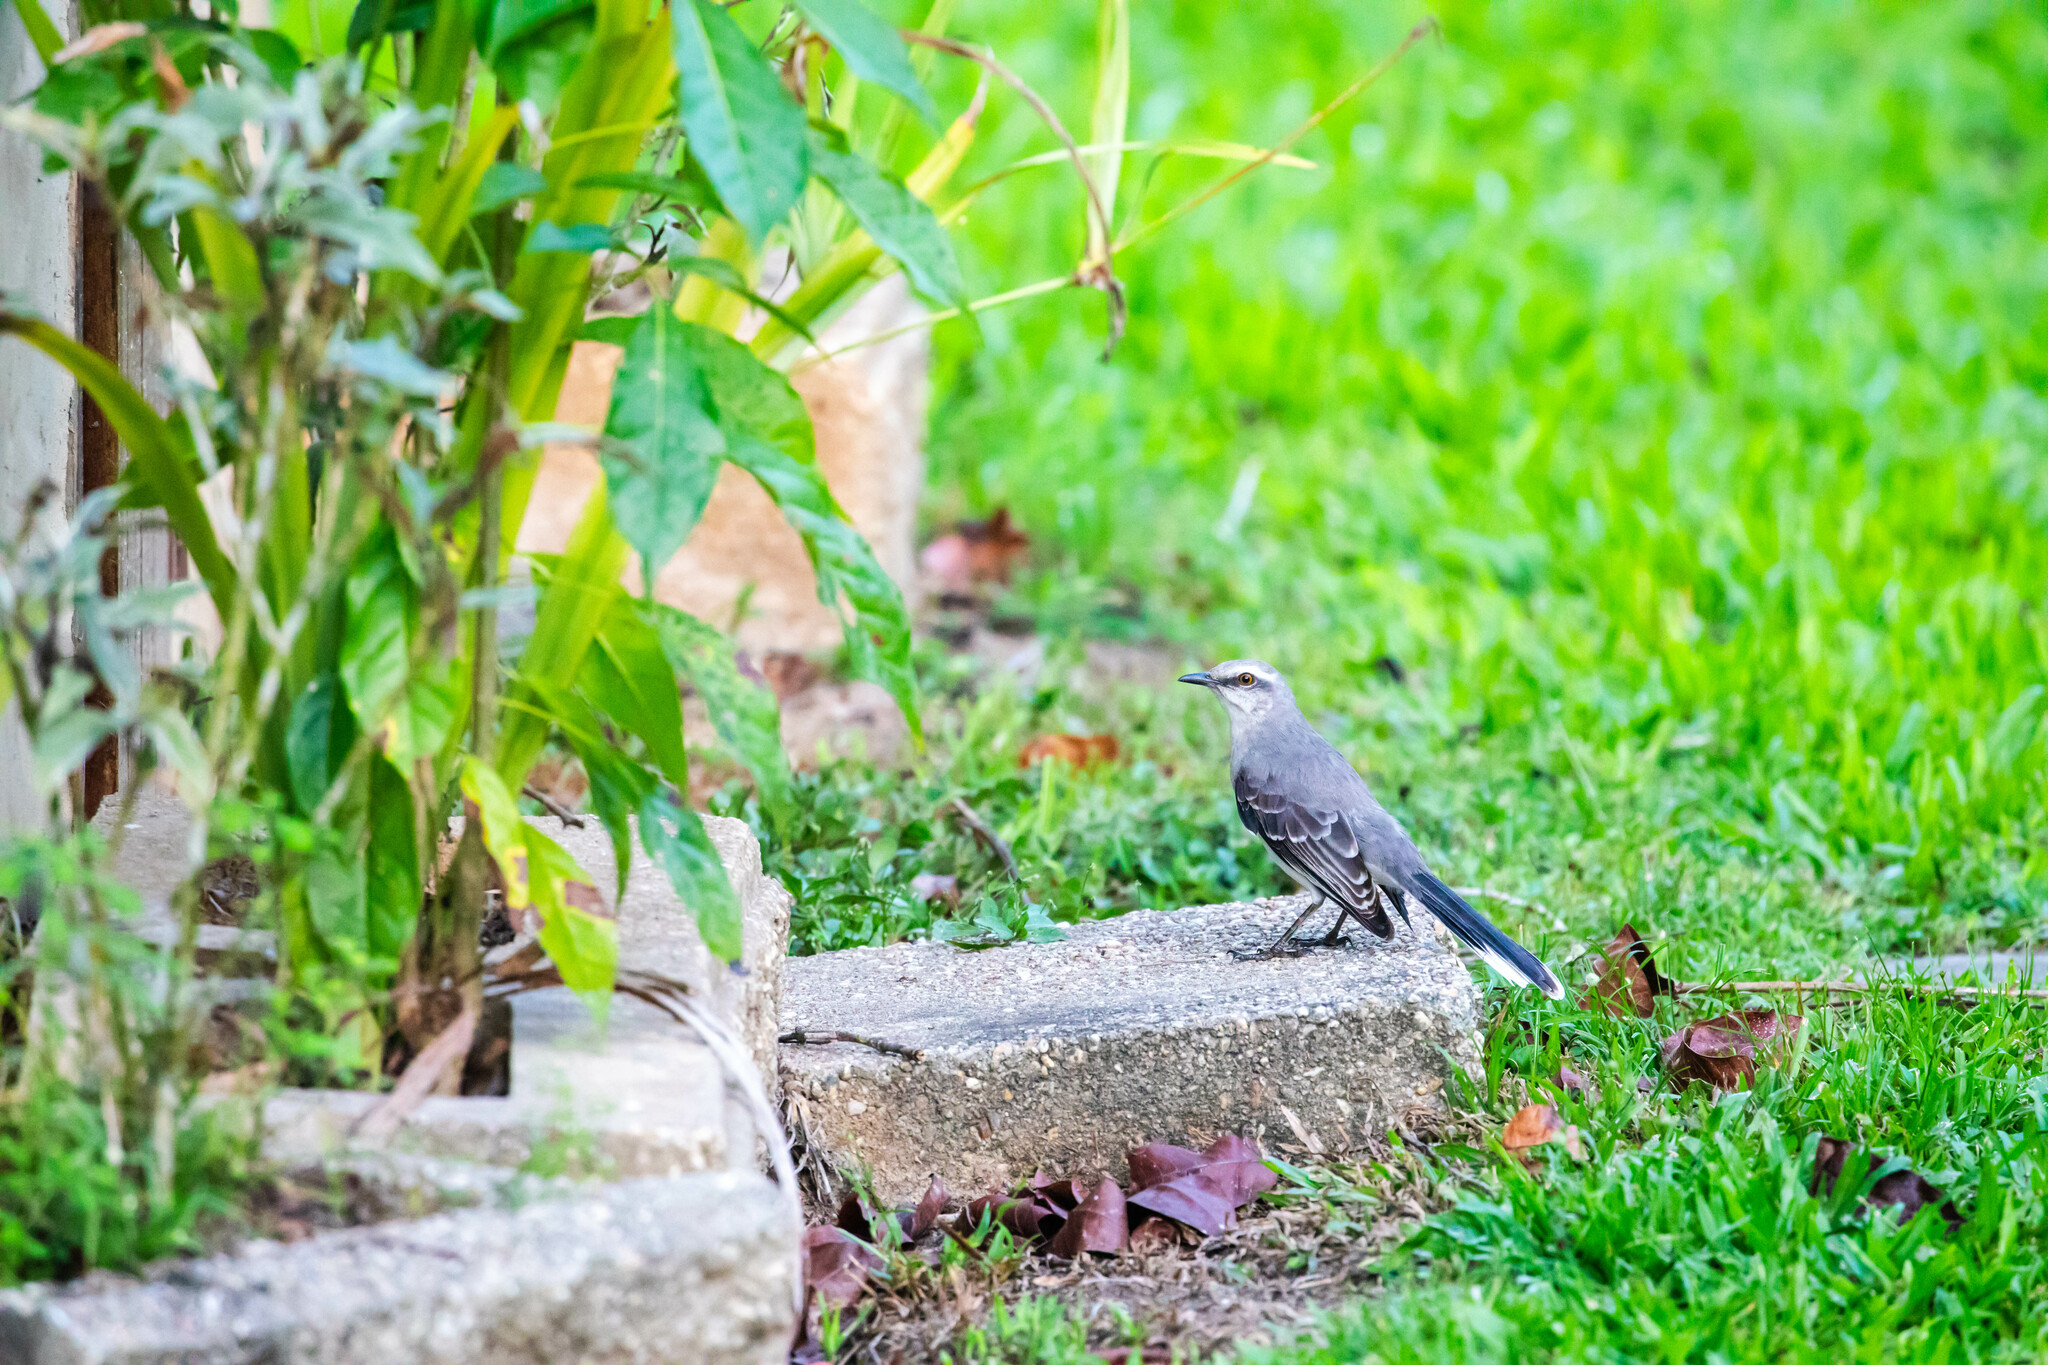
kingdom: Animalia
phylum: Chordata
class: Aves
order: Passeriformes
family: Mimidae
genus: Mimus
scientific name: Mimus gilvus
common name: Tropical mockingbird
